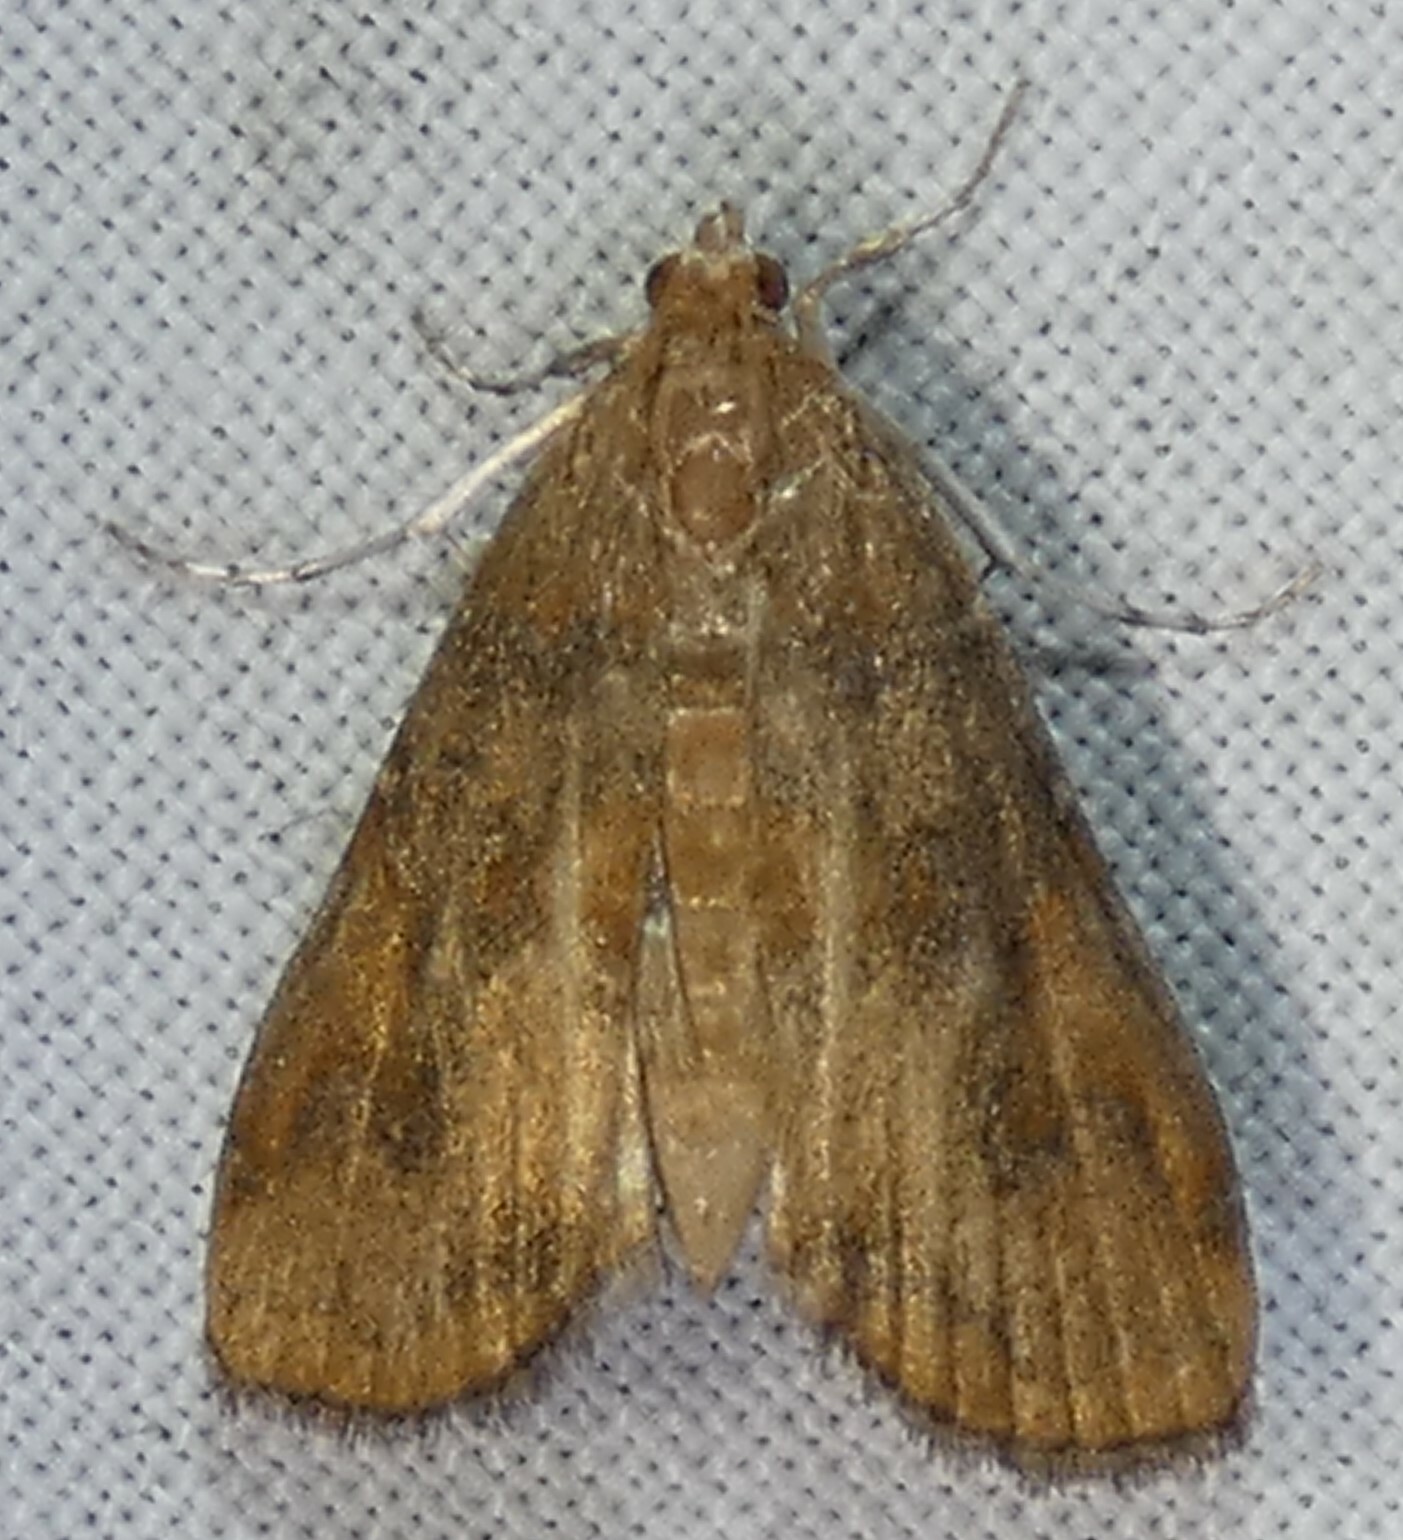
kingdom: Animalia
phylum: Arthropoda
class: Insecta
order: Lepidoptera
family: Crambidae
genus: Elophila
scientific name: Elophila gyralis
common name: Waterlily borer moth
